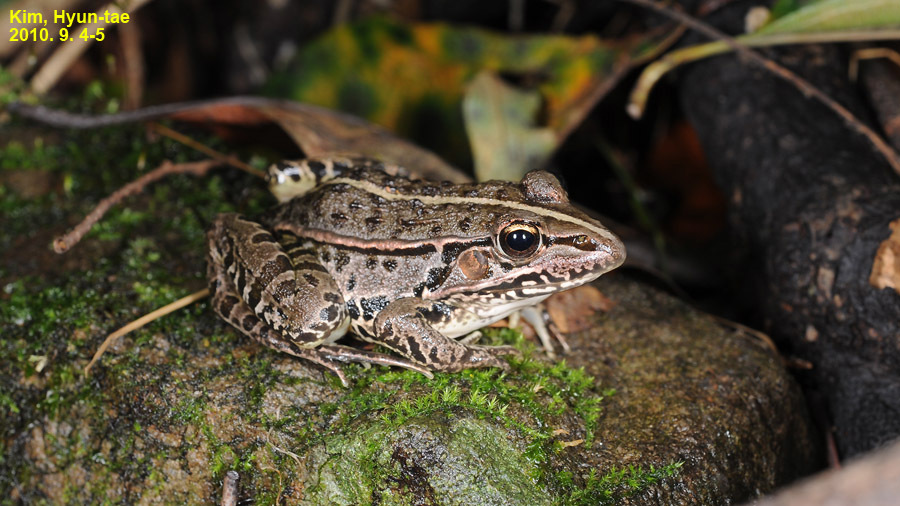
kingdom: Animalia
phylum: Chordata
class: Amphibia
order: Anura
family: Ranidae
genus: Pelophylax
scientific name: Pelophylax nigromaculatus
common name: Black-spotted pond frog
